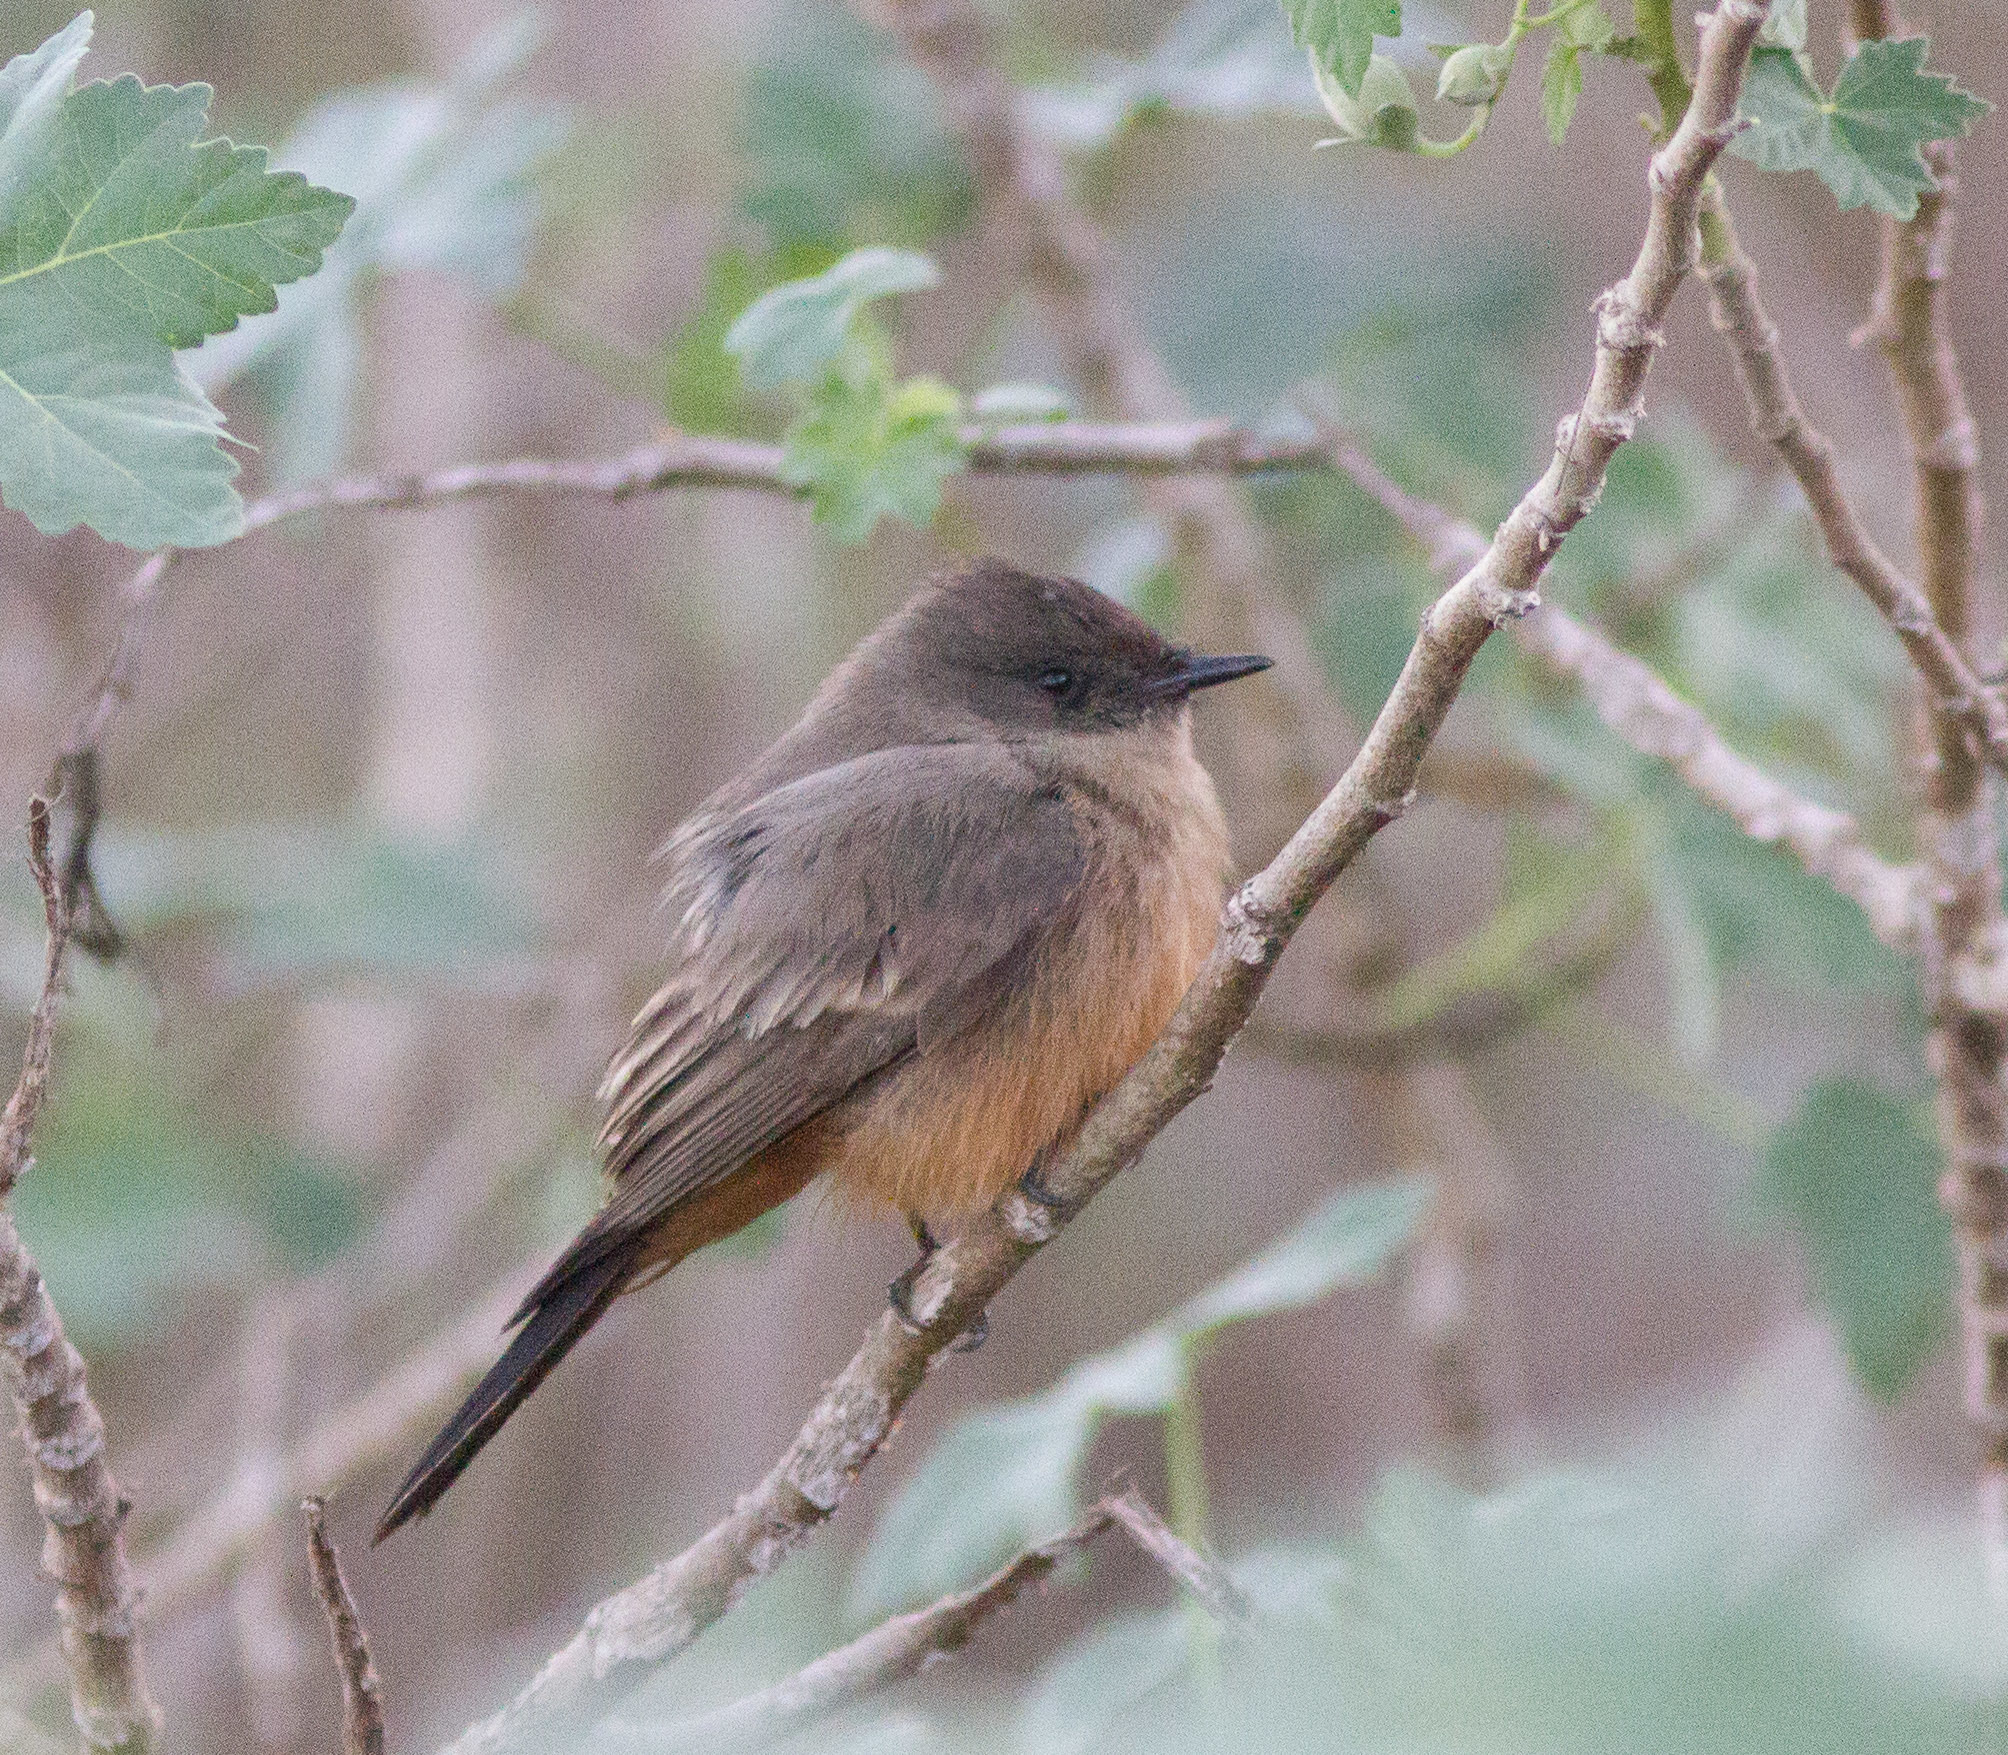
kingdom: Animalia
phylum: Chordata
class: Aves
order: Passeriformes
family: Tyrannidae
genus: Sayornis
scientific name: Sayornis saya
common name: Say's phoebe
